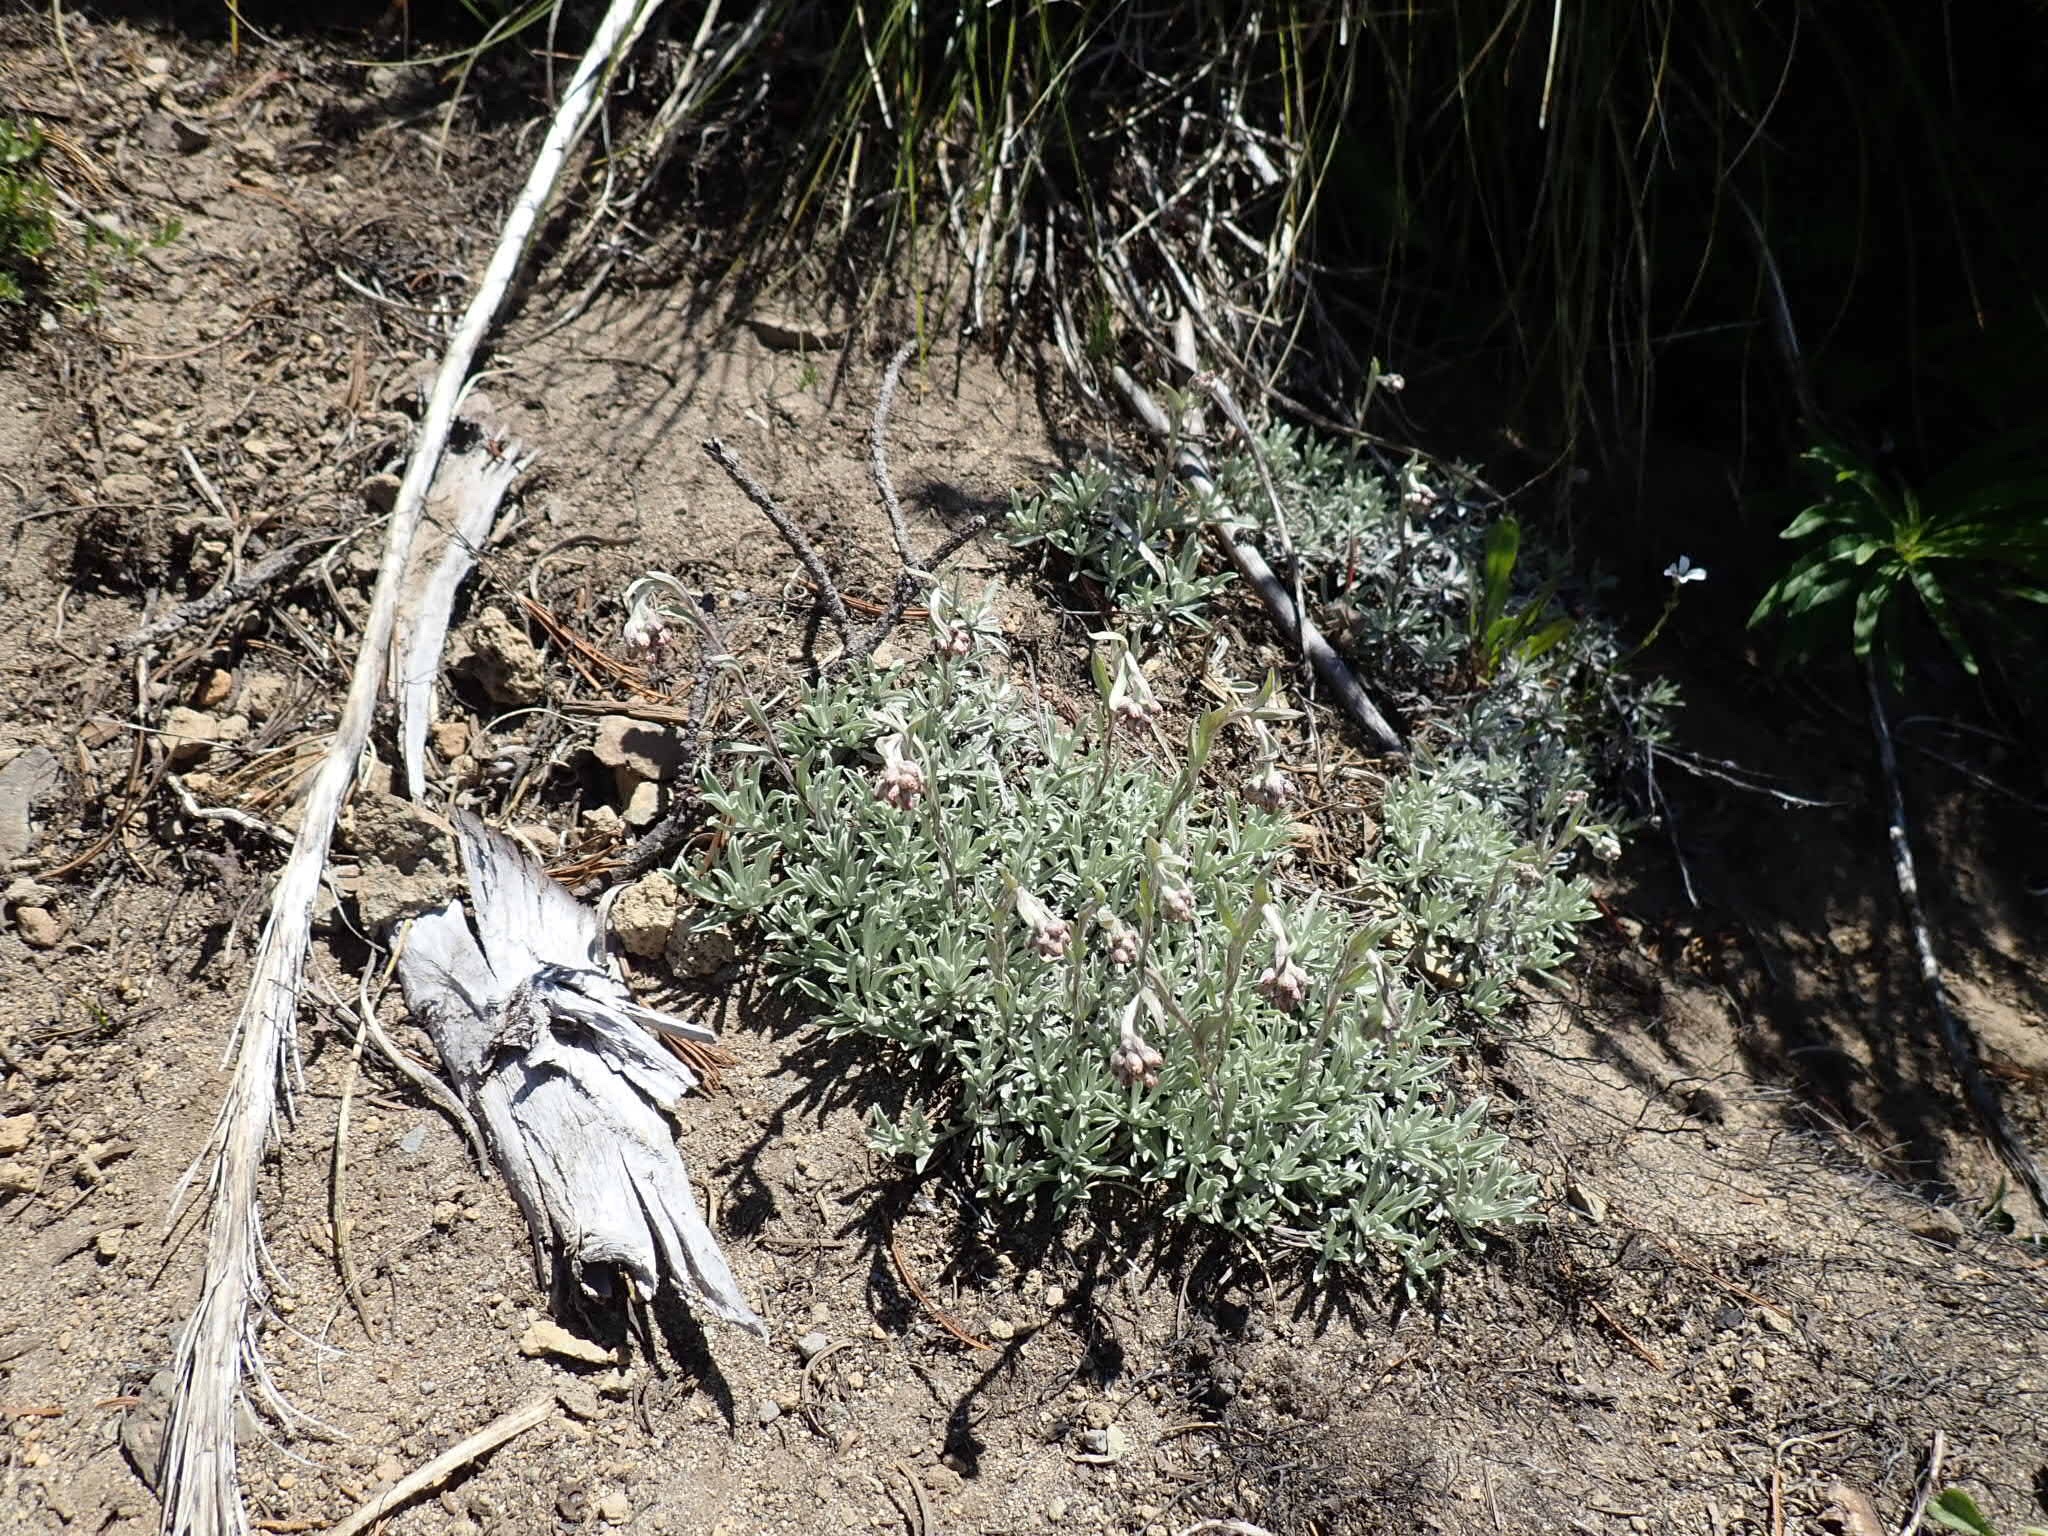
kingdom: Plantae
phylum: Tracheophyta
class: Magnoliopsida
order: Asterales
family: Asteraceae
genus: Antennaria
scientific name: Antennaria rosea
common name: Rosy pussytoes
